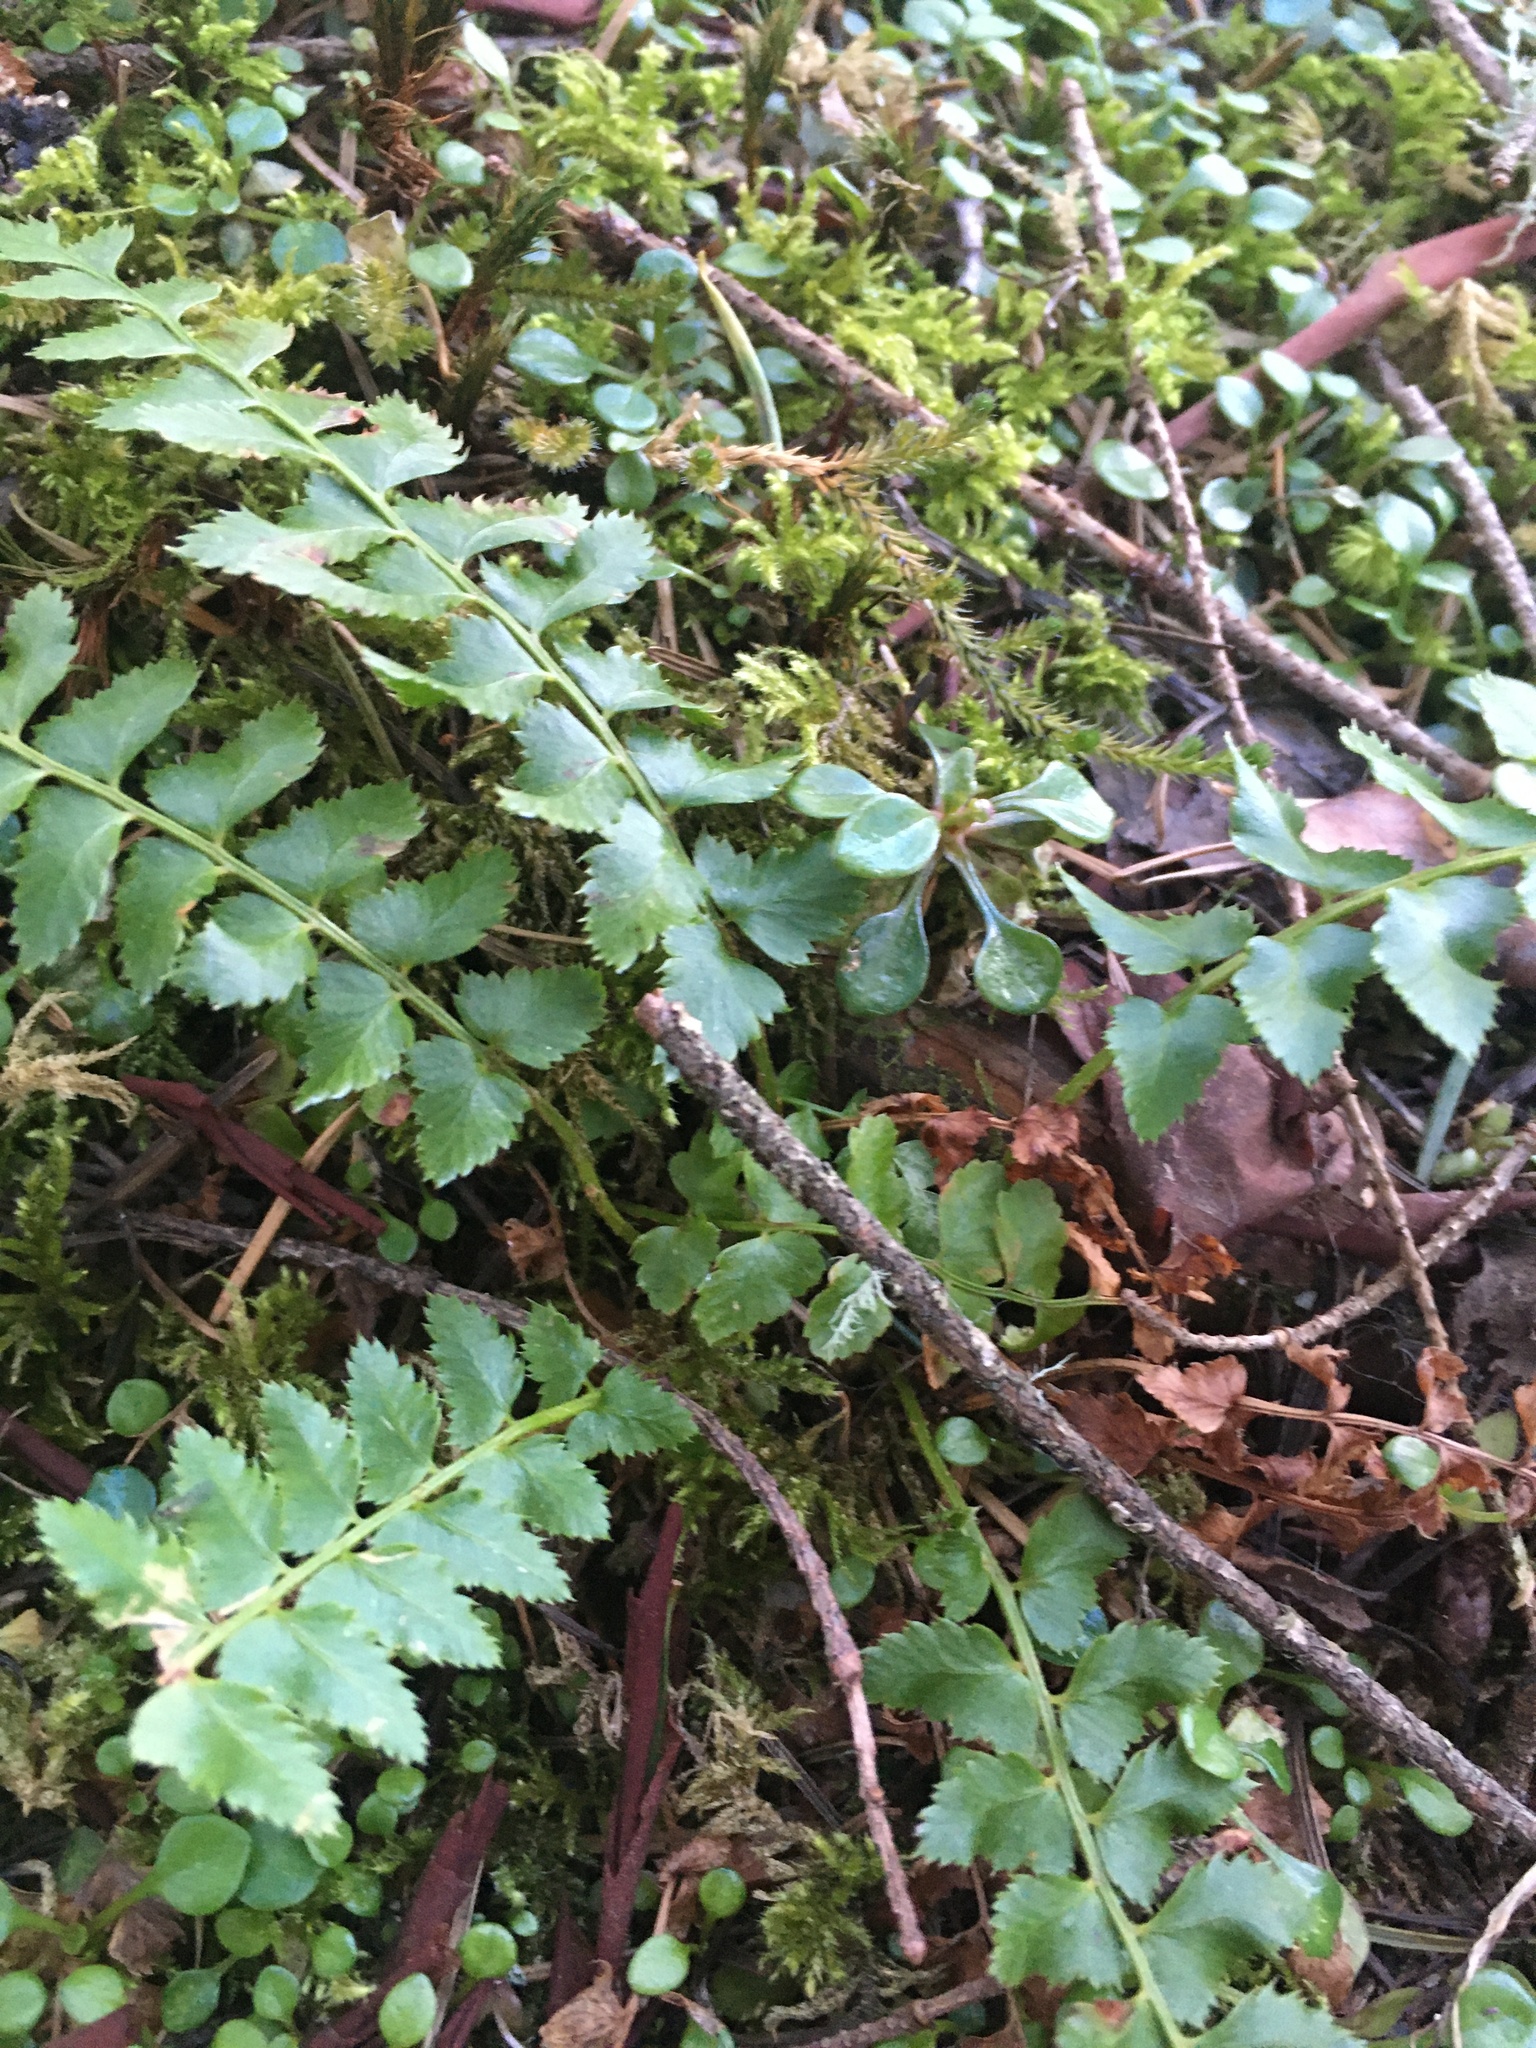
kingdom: Plantae
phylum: Tracheophyta
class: Polypodiopsida
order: Polypodiales
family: Dryopteridaceae
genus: Polystichum
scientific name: Polystichum munitum
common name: Western sword-fern
